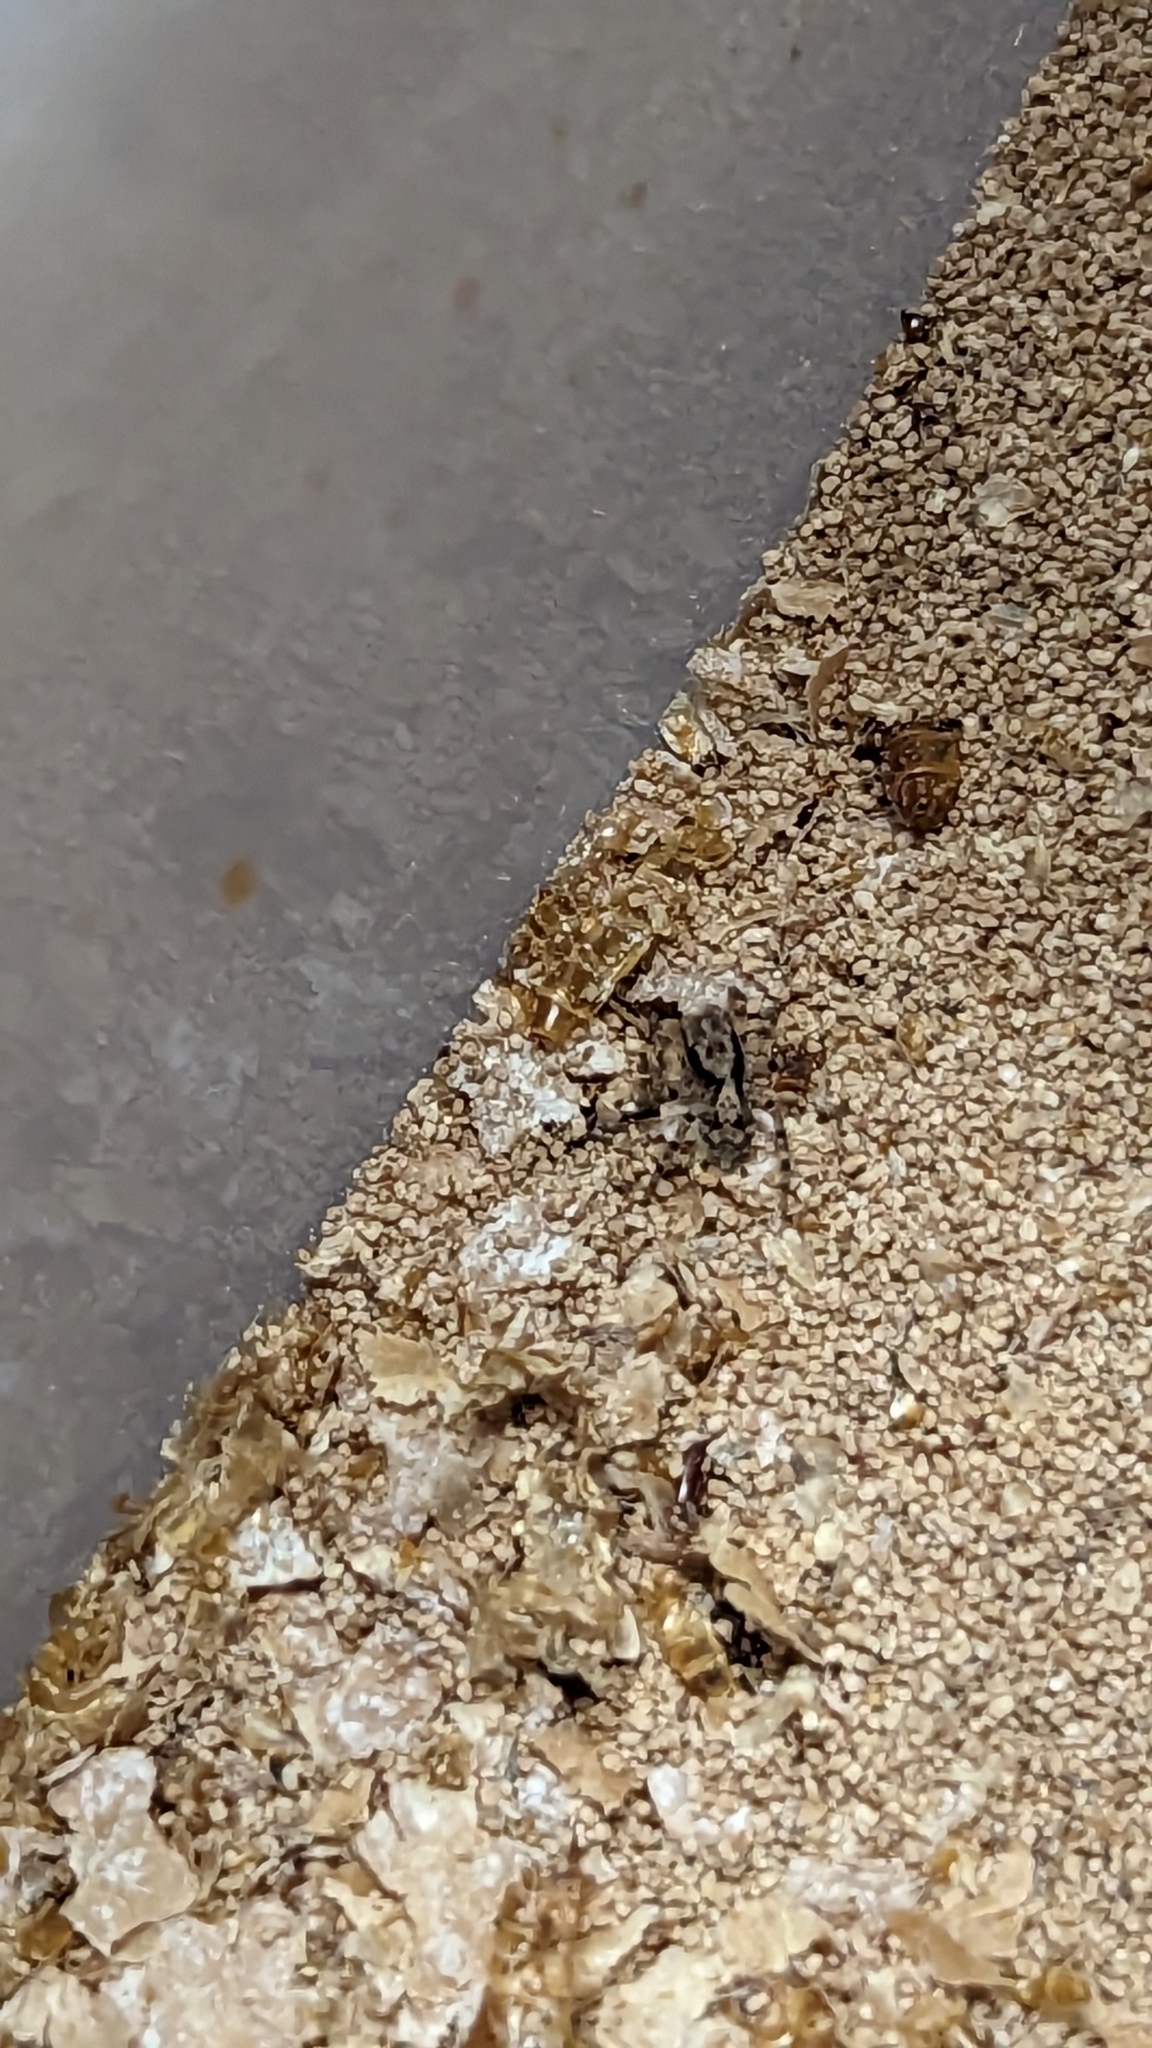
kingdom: Animalia
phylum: Arthropoda
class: Arachnida
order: Araneae
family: Salticidae
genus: Naphrys
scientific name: Naphrys pulex
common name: Flea jumping spider
